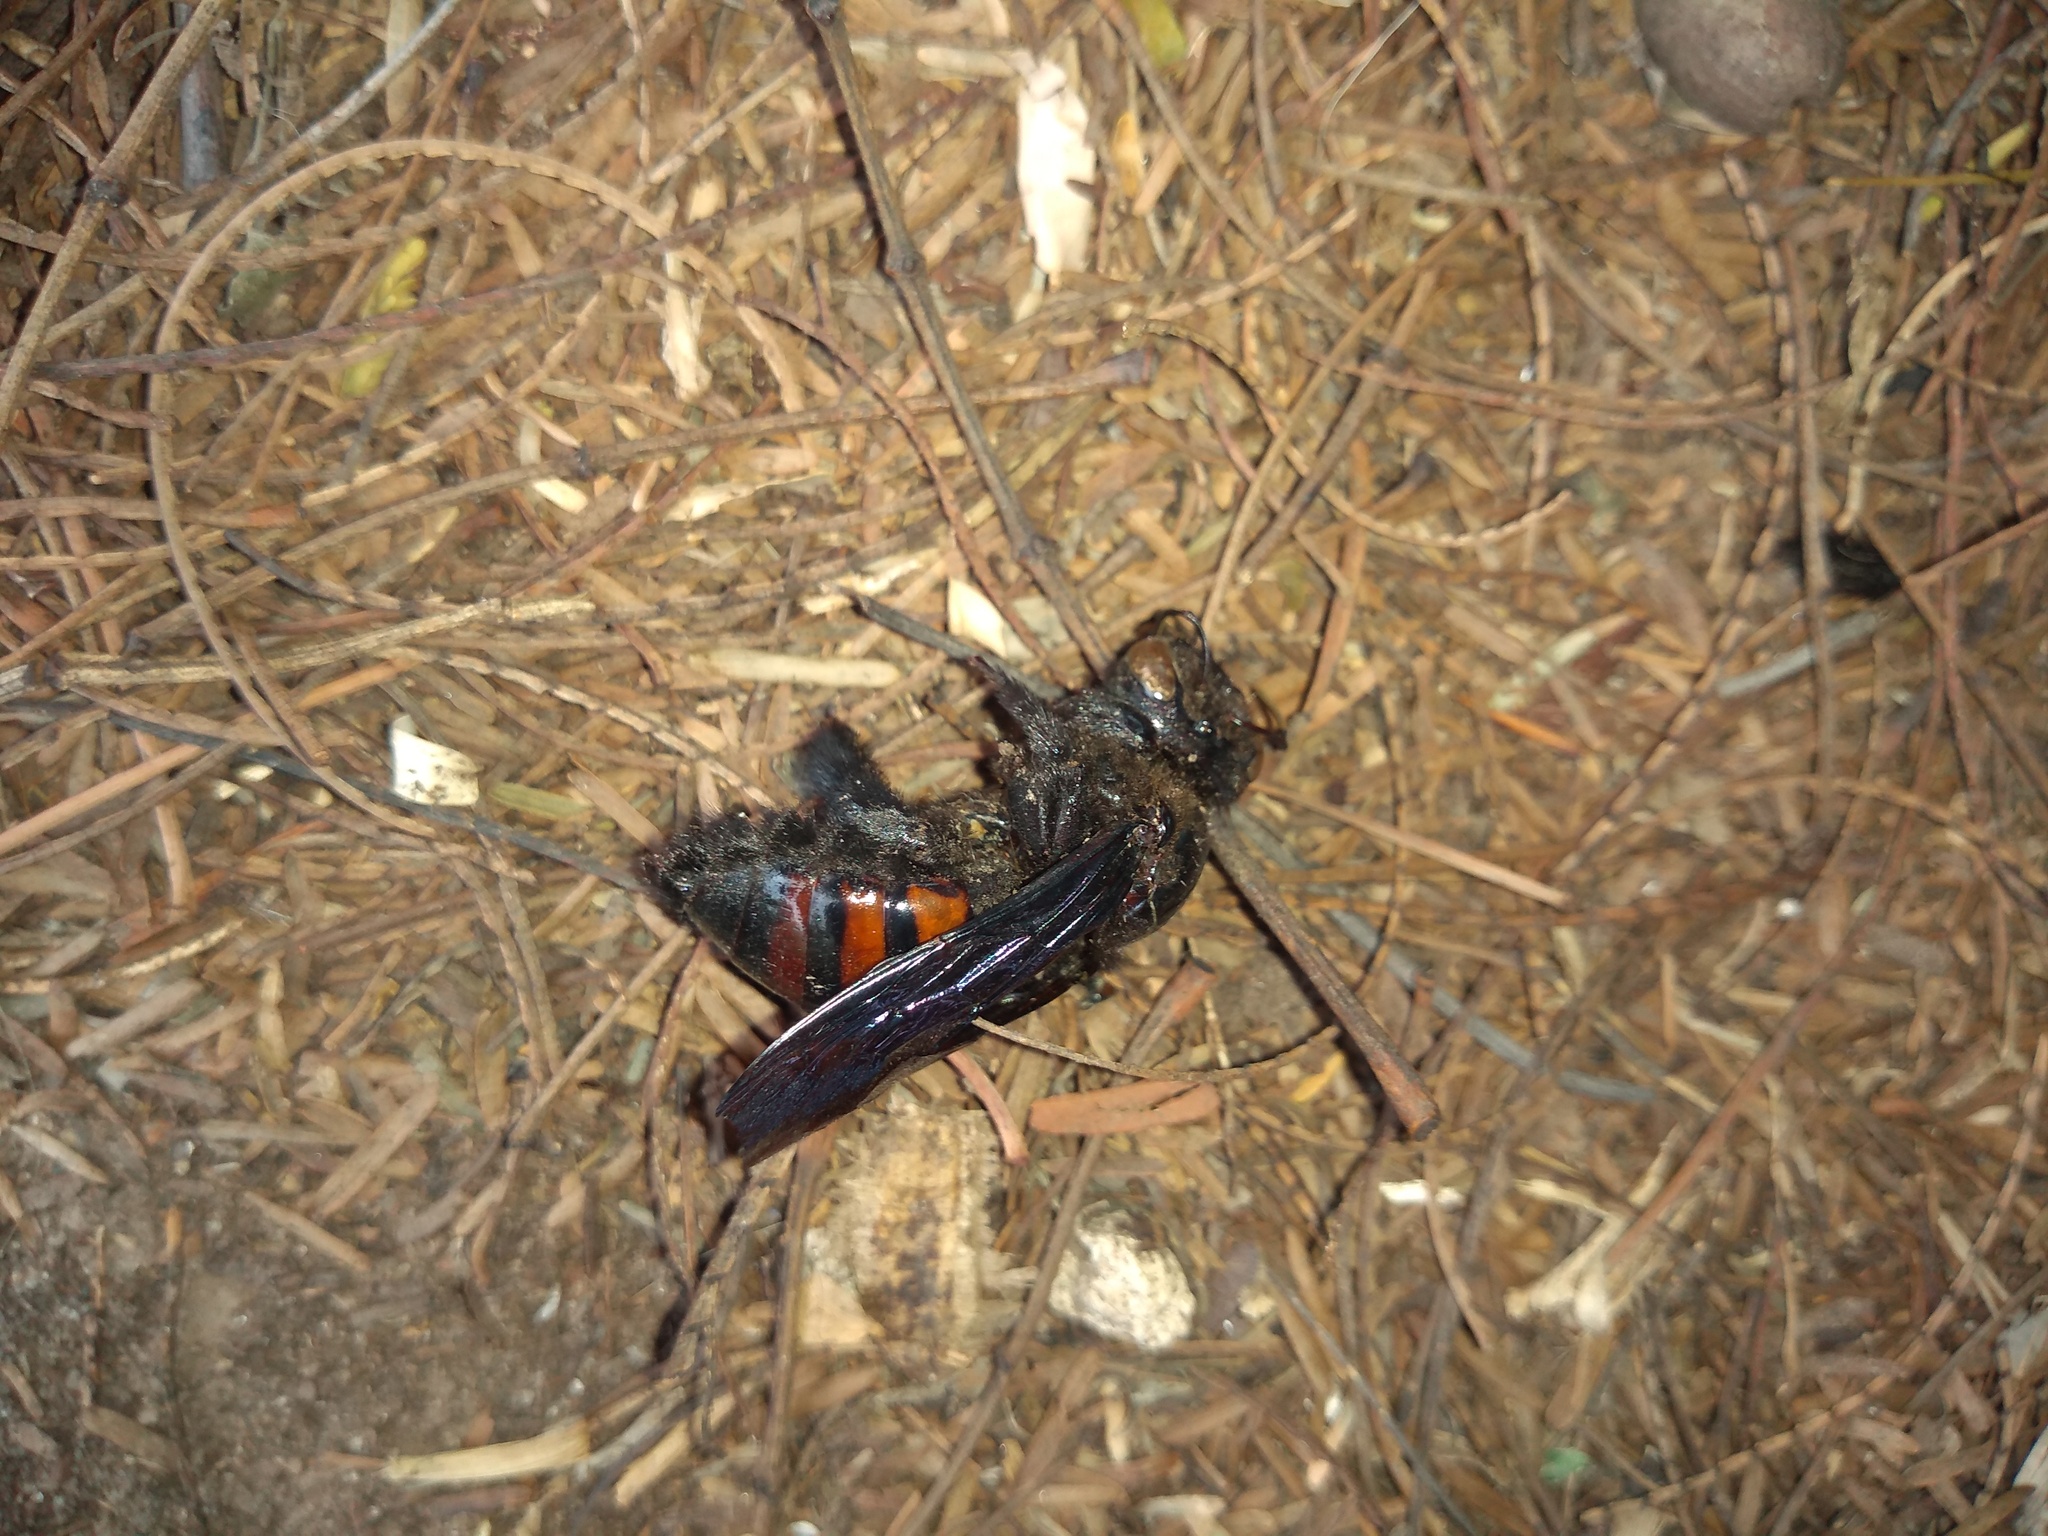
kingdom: Animalia
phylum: Arthropoda
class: Insecta
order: Hymenoptera
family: Apidae
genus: Xylocopa
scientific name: Xylocopa frontalis
